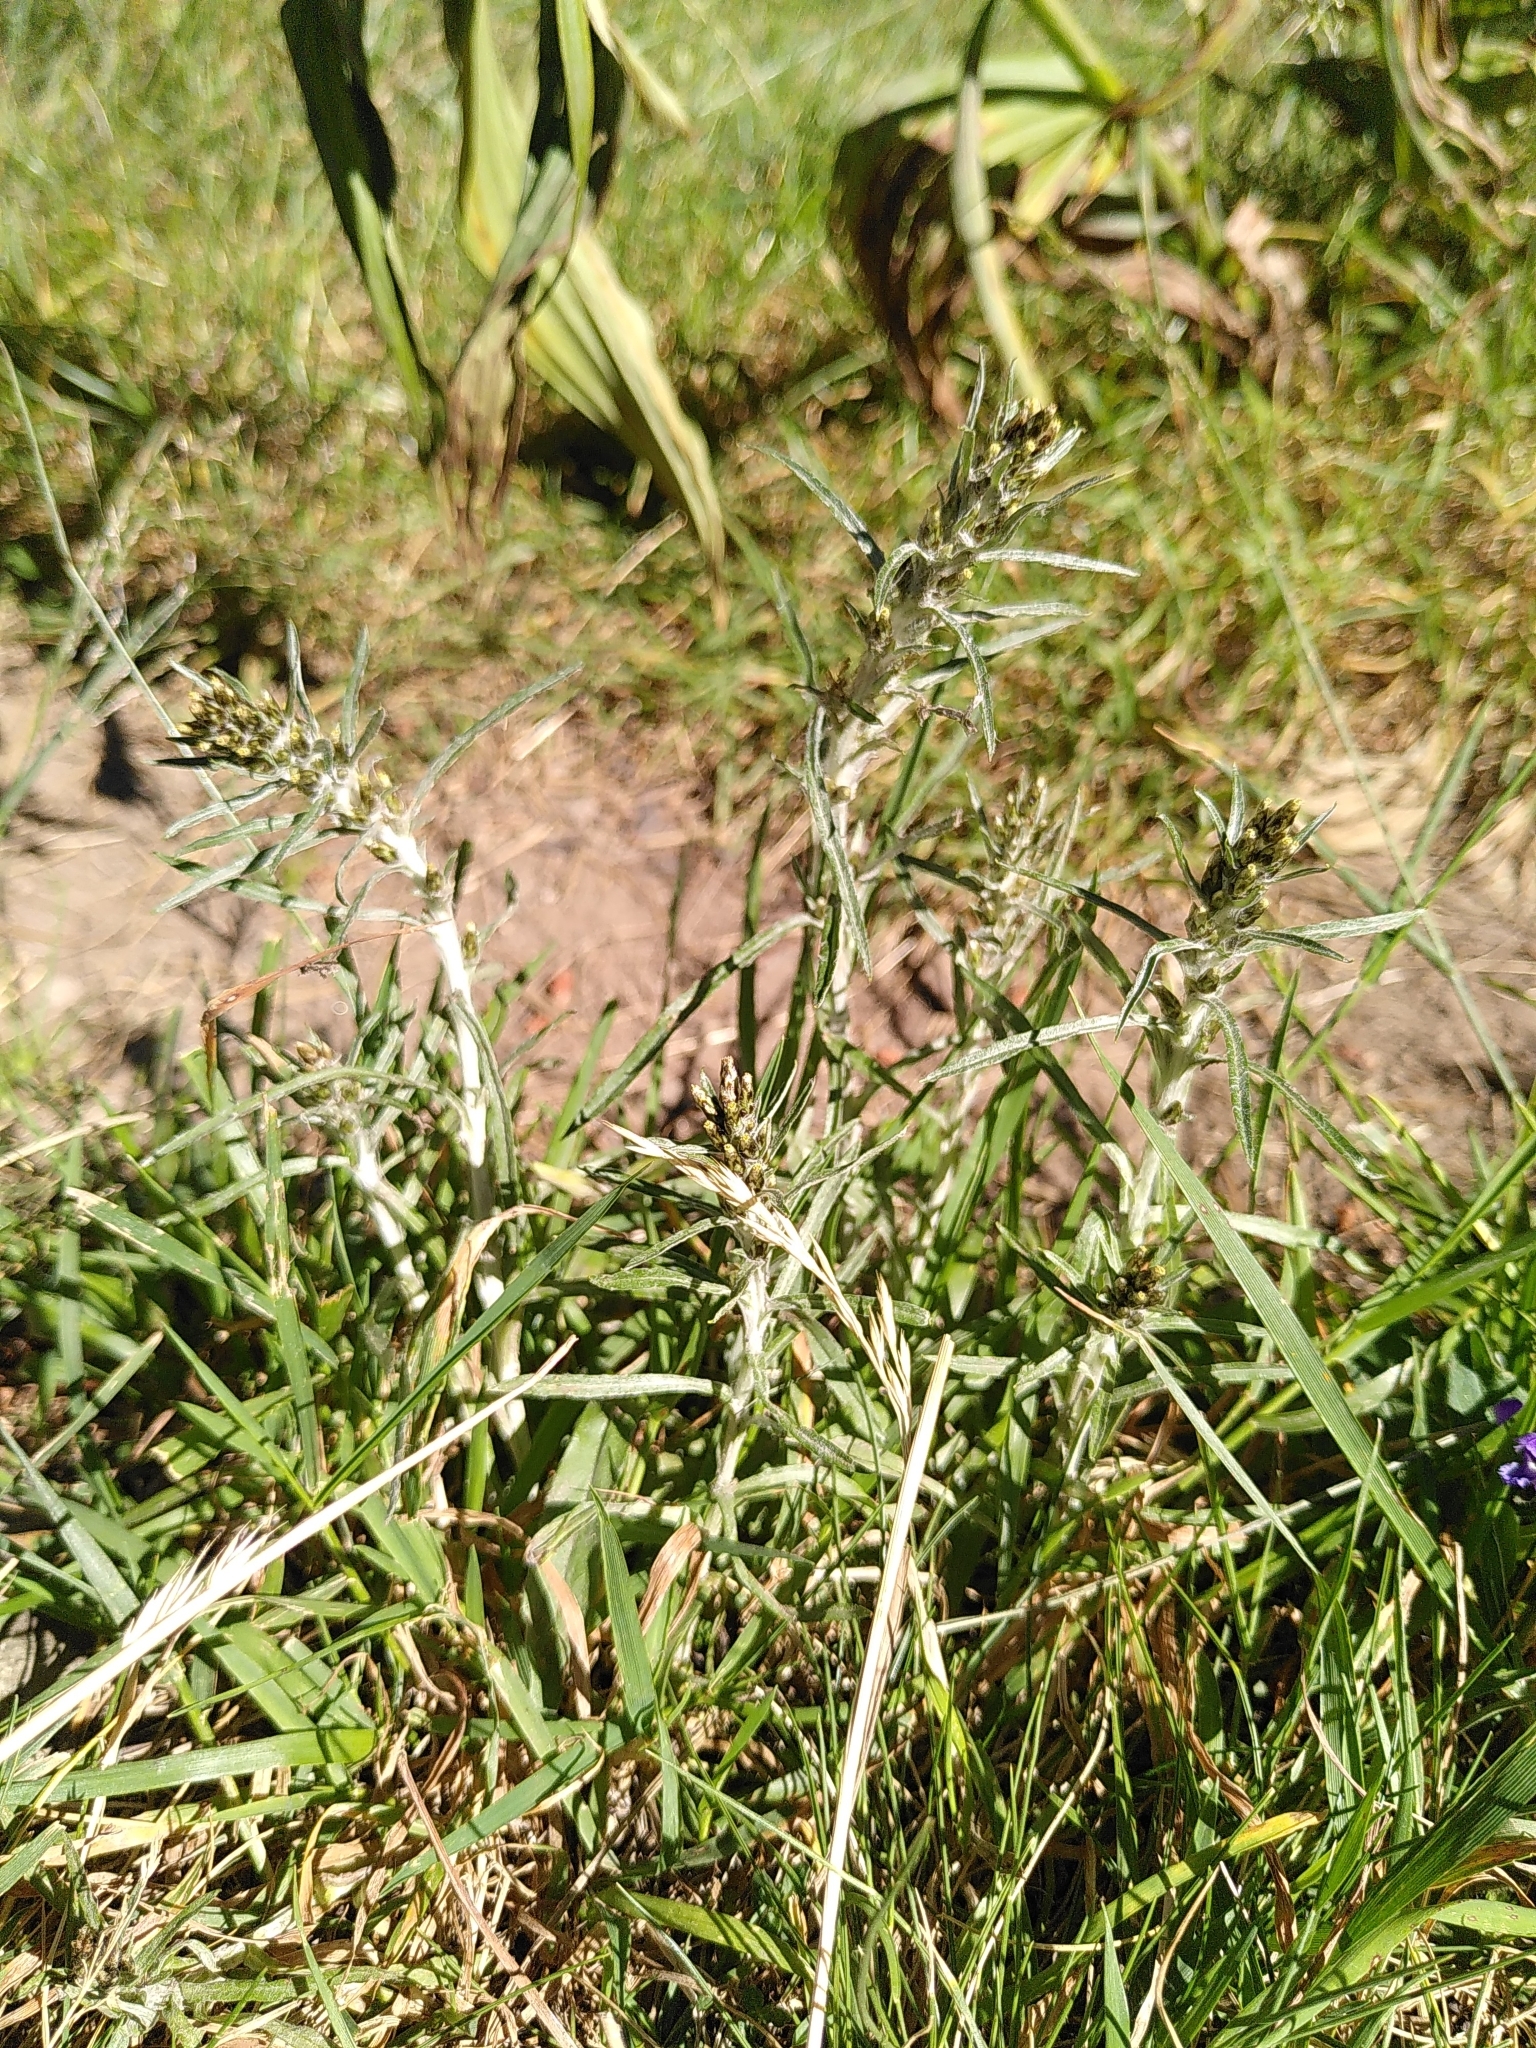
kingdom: Plantae
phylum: Tracheophyta
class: Magnoliopsida
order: Asterales
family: Asteraceae
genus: Omalotheca
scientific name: Omalotheca sylvatica
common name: Heath cudweed
